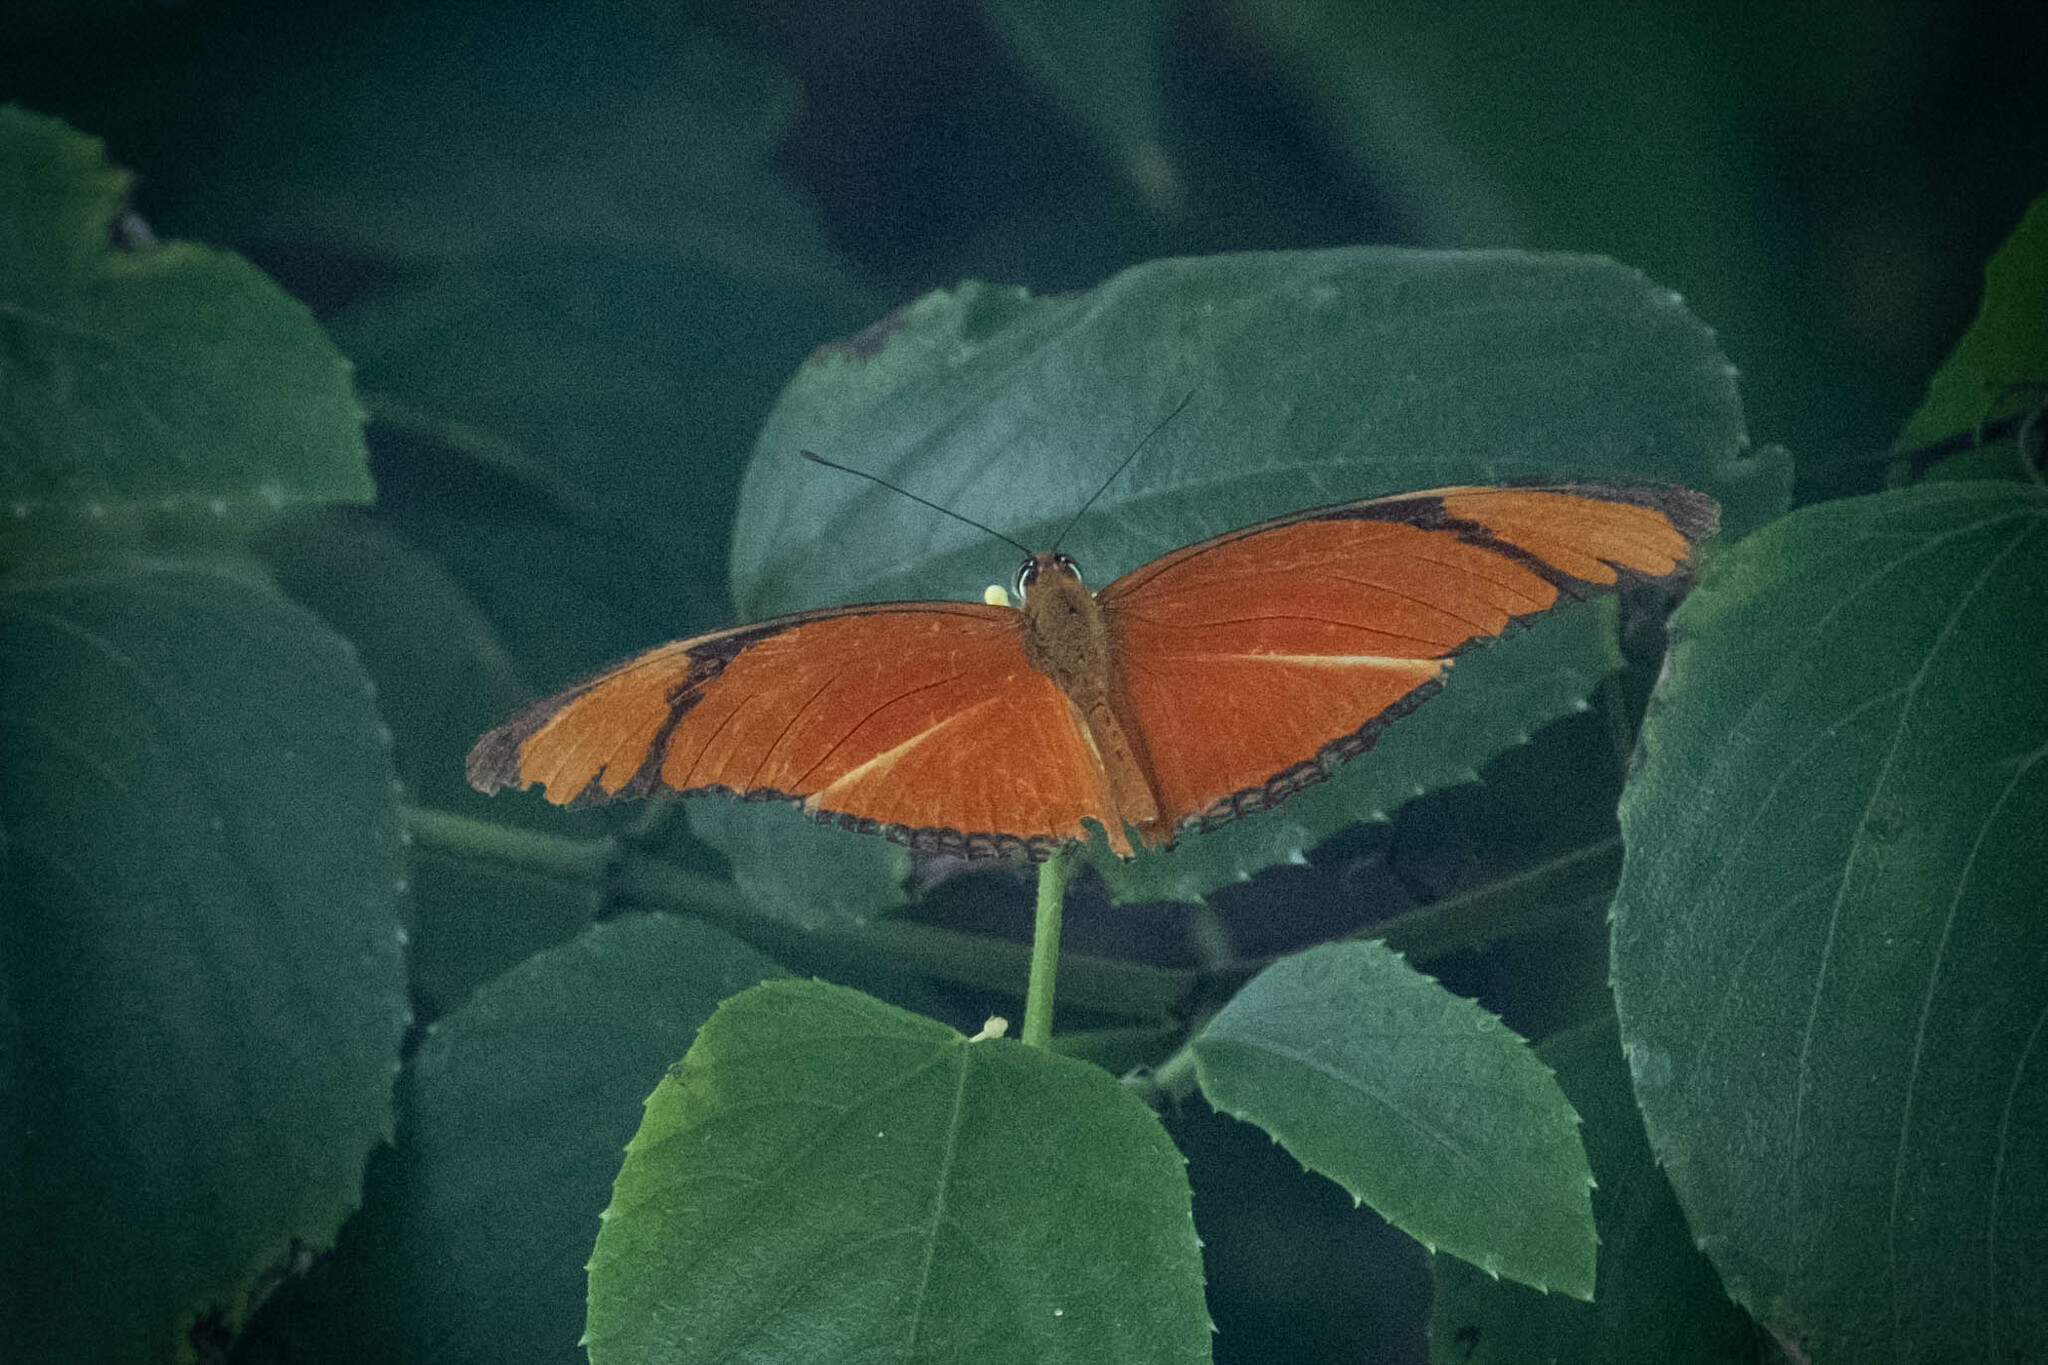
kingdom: Animalia
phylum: Arthropoda
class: Insecta
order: Lepidoptera
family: Nymphalidae
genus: Dryas
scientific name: Dryas iulia
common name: Flambeau
